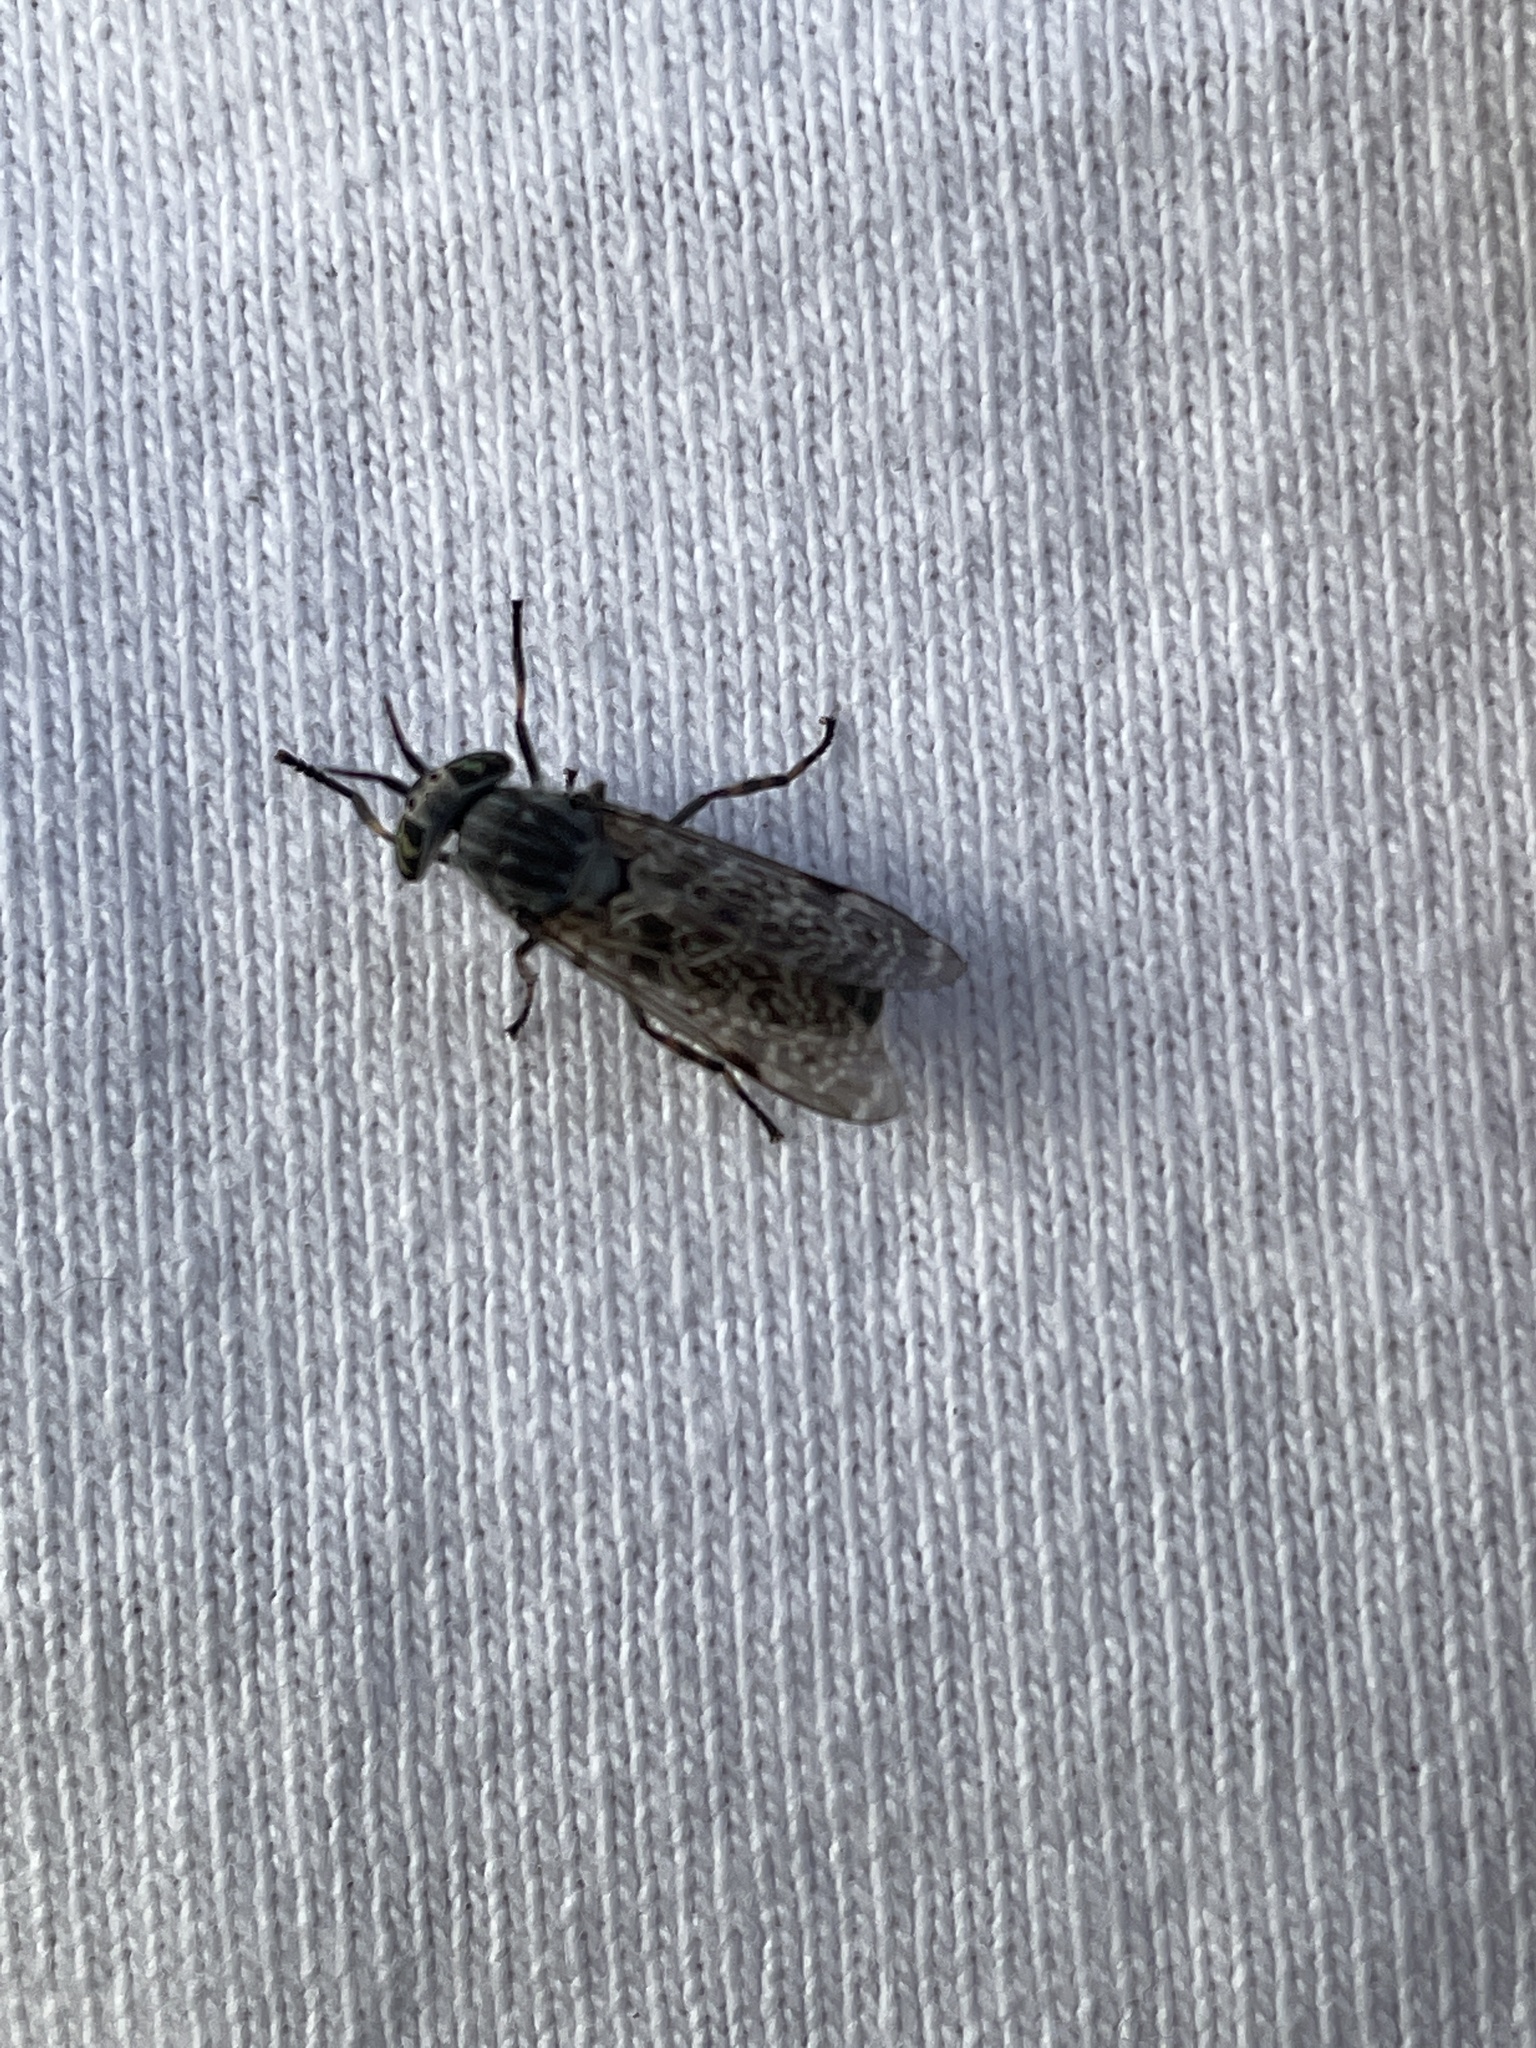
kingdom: Animalia
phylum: Arthropoda
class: Insecta
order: Diptera
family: Tabanidae
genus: Haematopota
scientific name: Haematopota pluvialis
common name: Common horse fly
